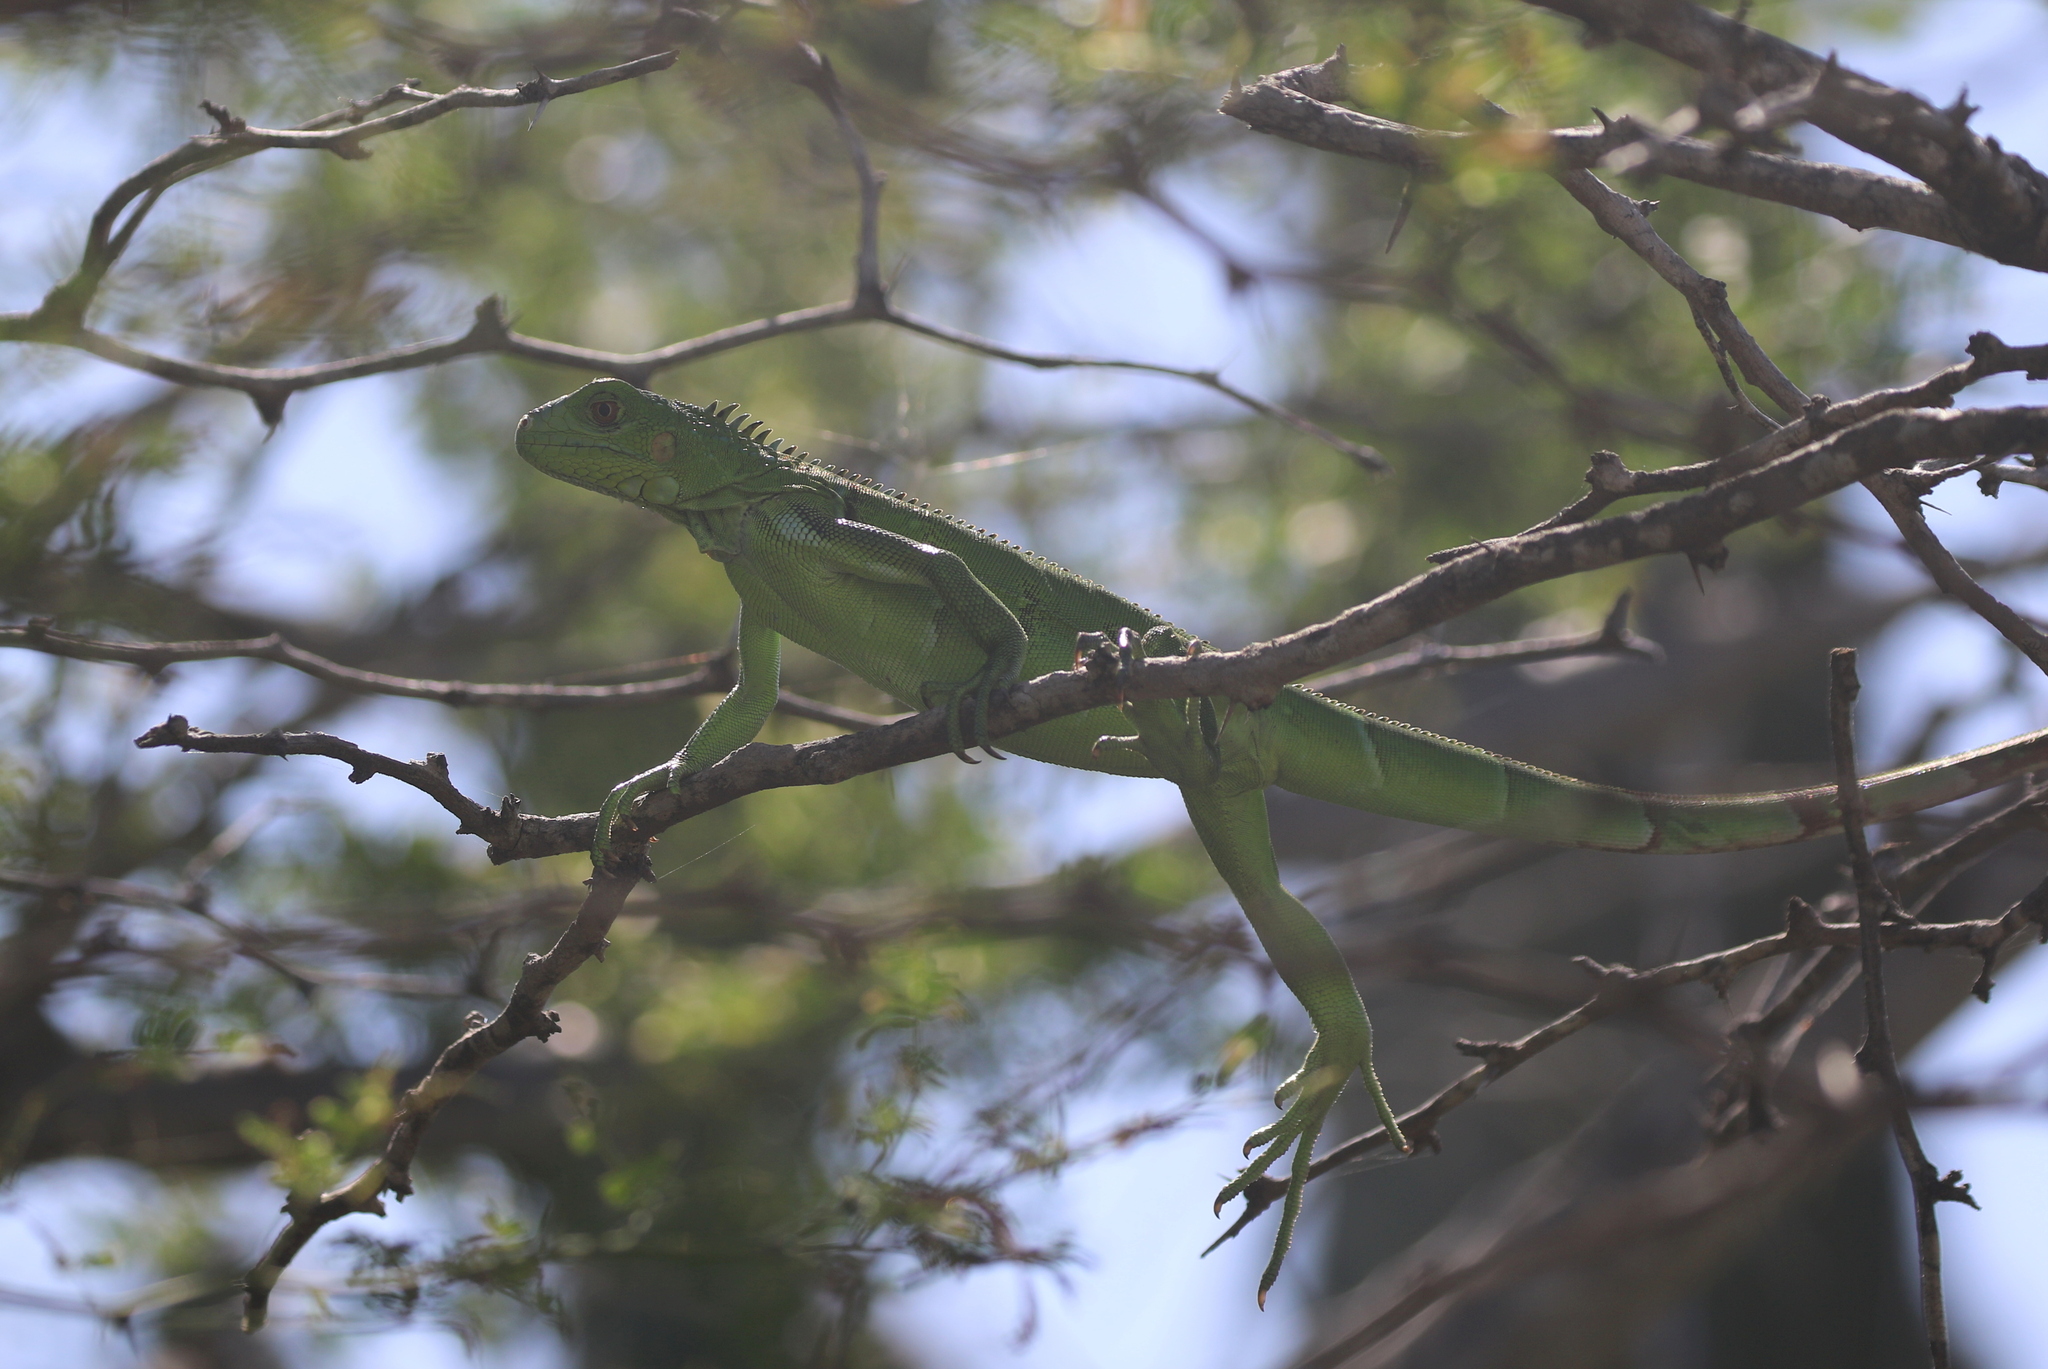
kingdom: Animalia
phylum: Chordata
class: Squamata
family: Iguanidae
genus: Iguana
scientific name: Iguana iguana
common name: Green iguana
